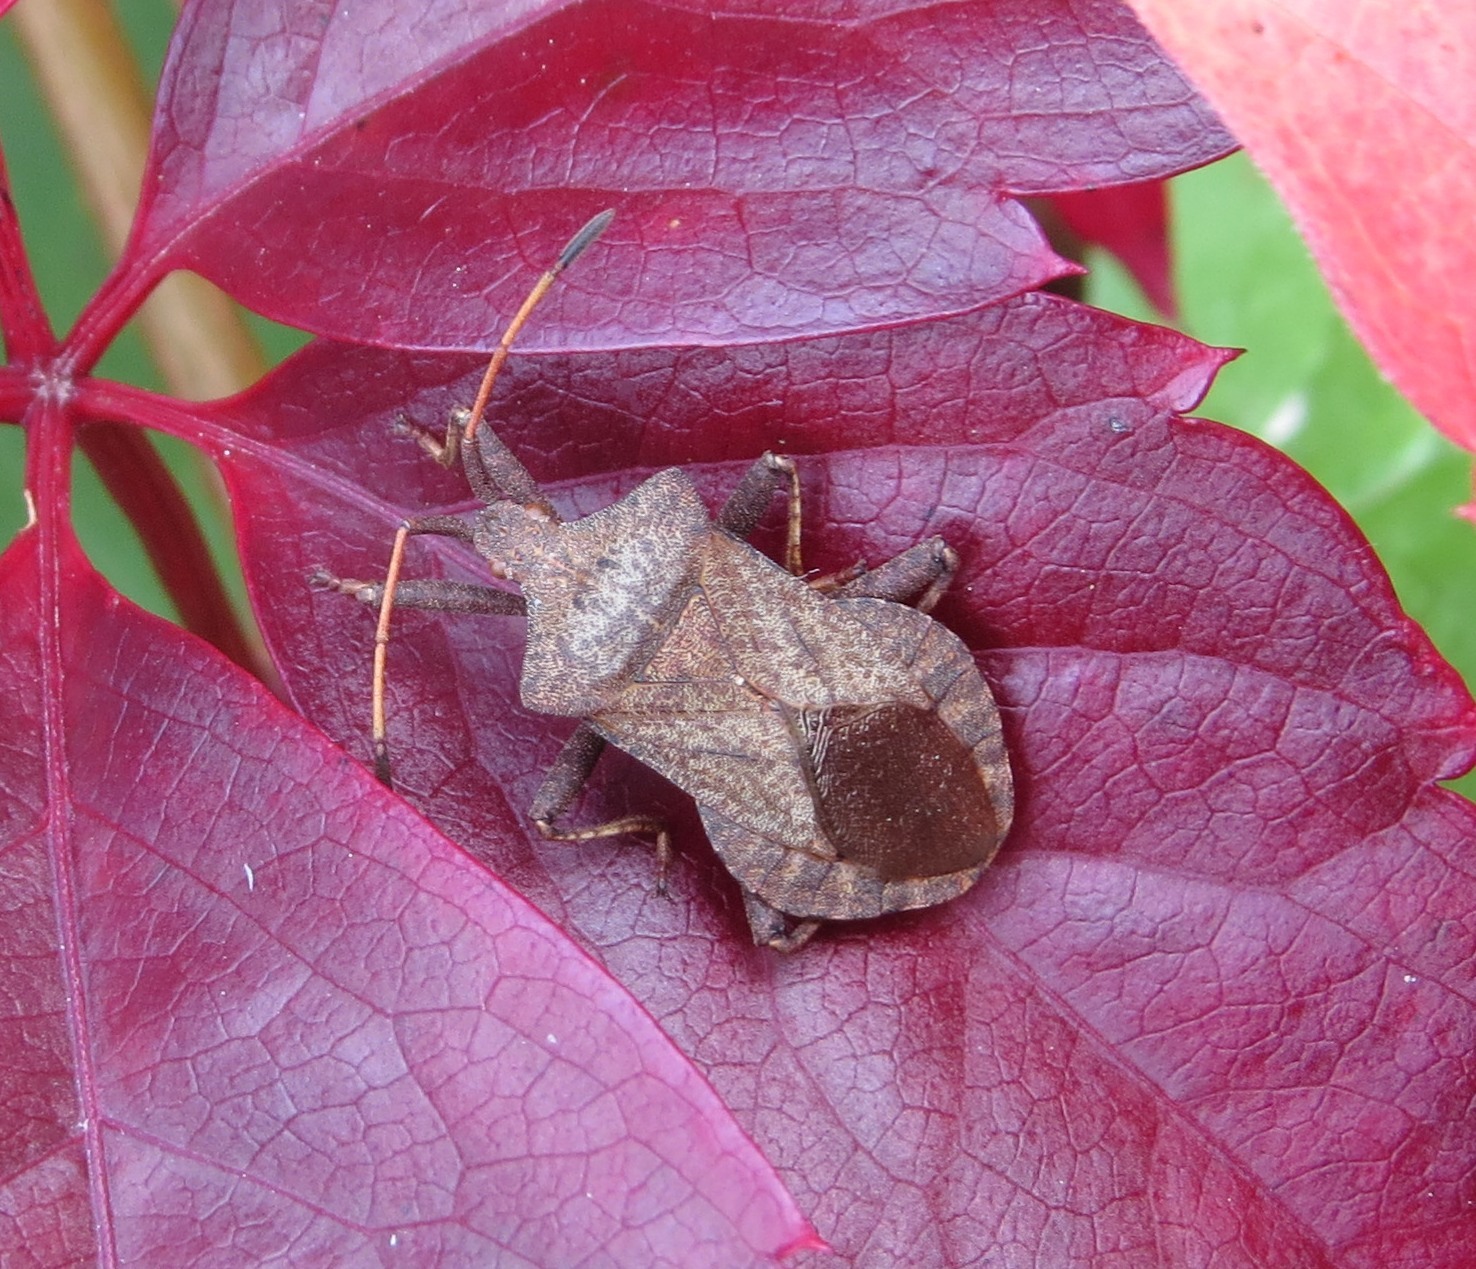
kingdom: Animalia
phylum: Arthropoda
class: Insecta
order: Hemiptera
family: Coreidae
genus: Coreus
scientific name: Coreus marginatus
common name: Dock bug
